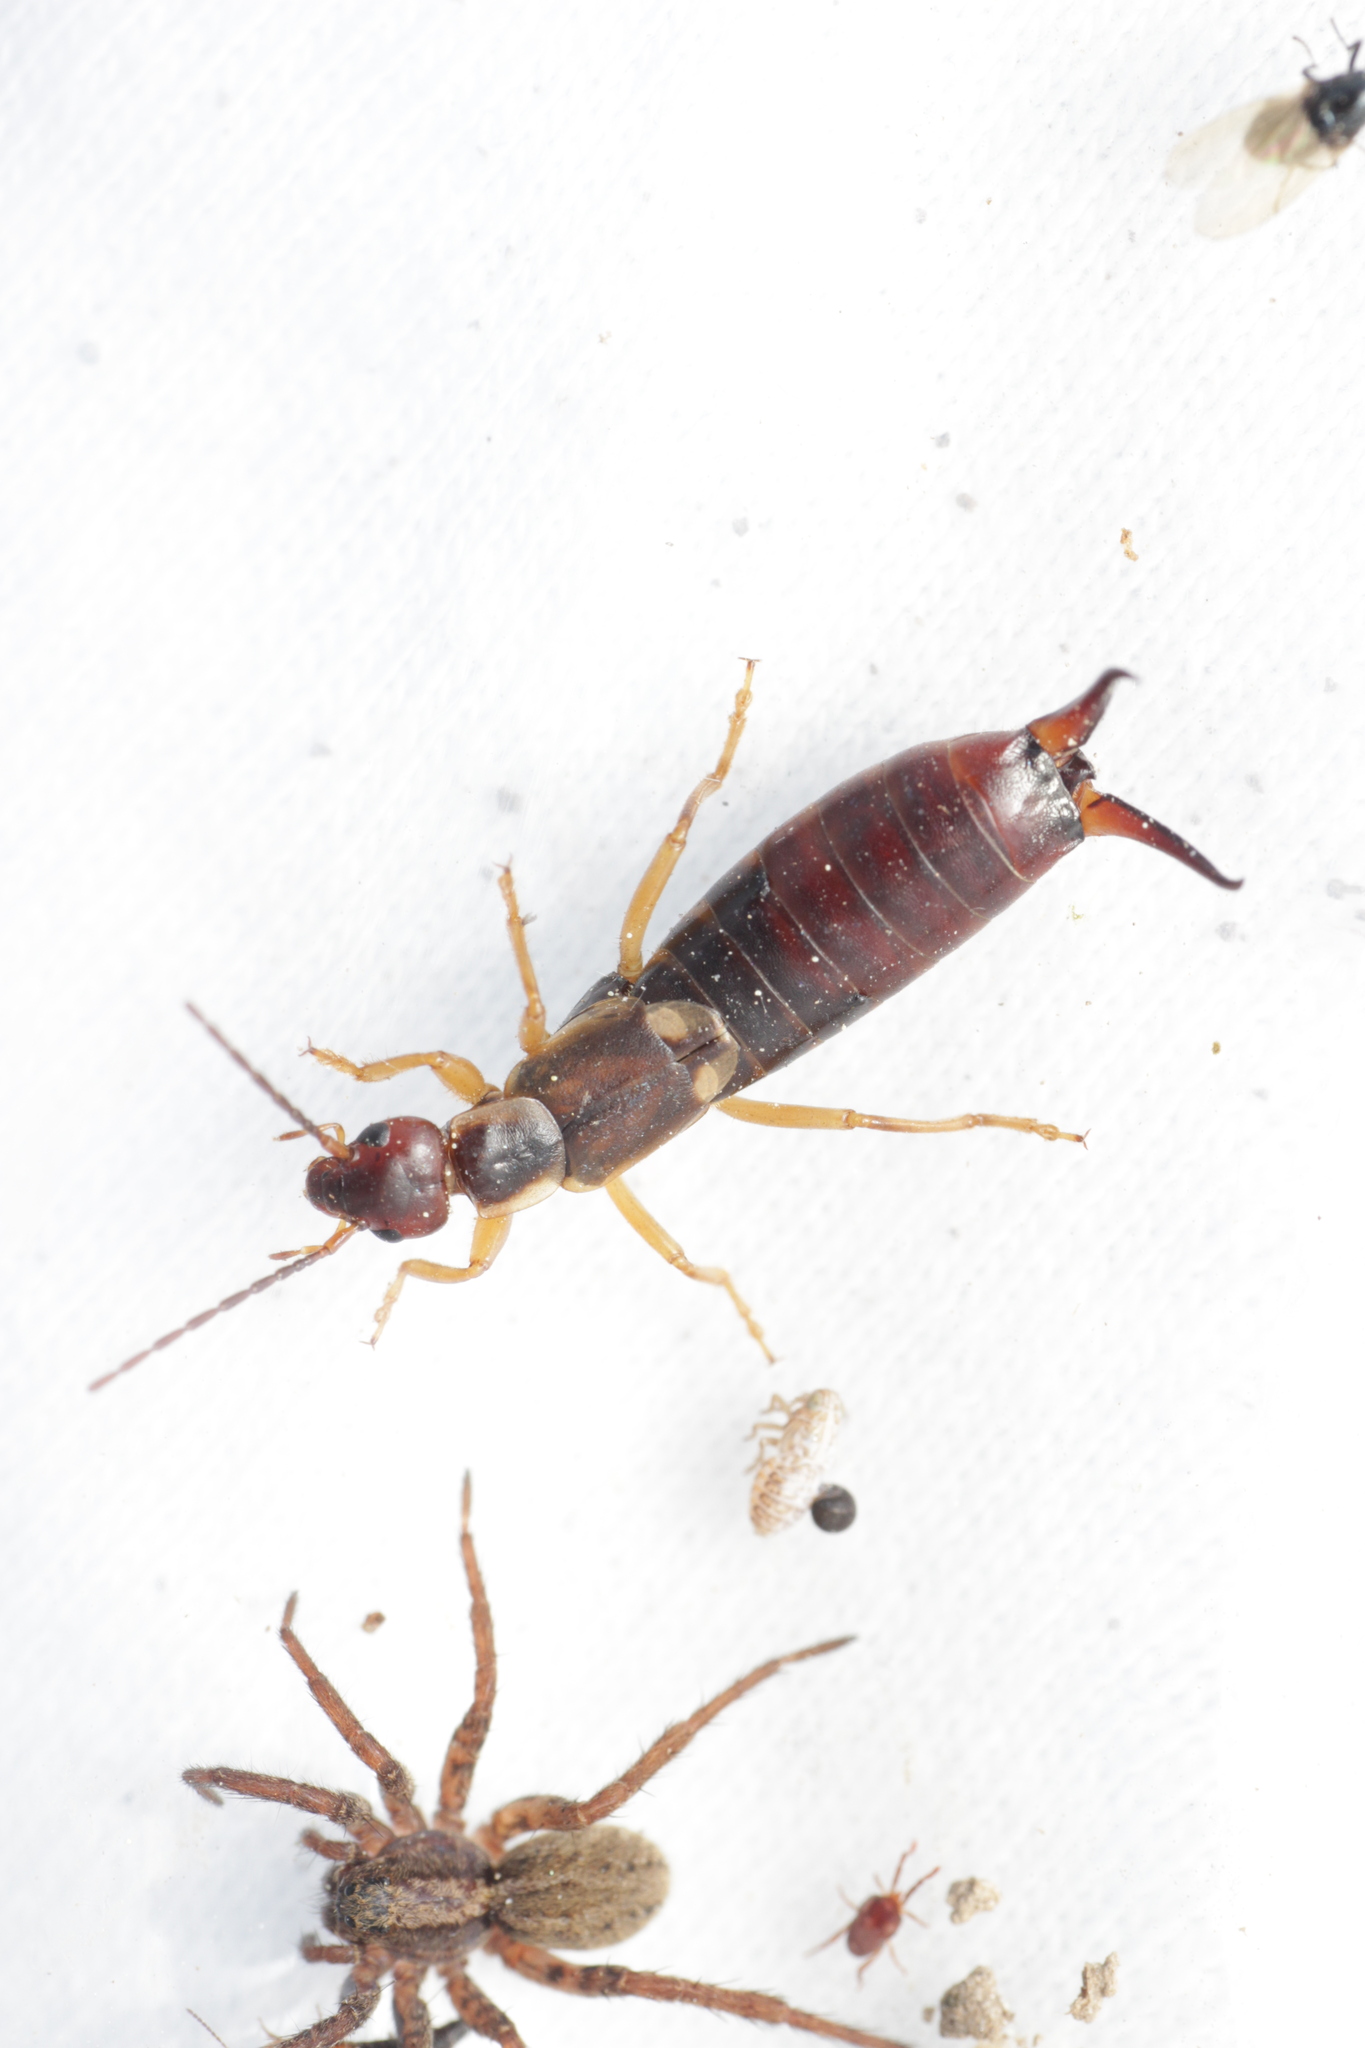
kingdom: Animalia
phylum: Arthropoda
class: Arachnida
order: Araneae
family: Lycosidae
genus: Alopecosa
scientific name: Alopecosa
